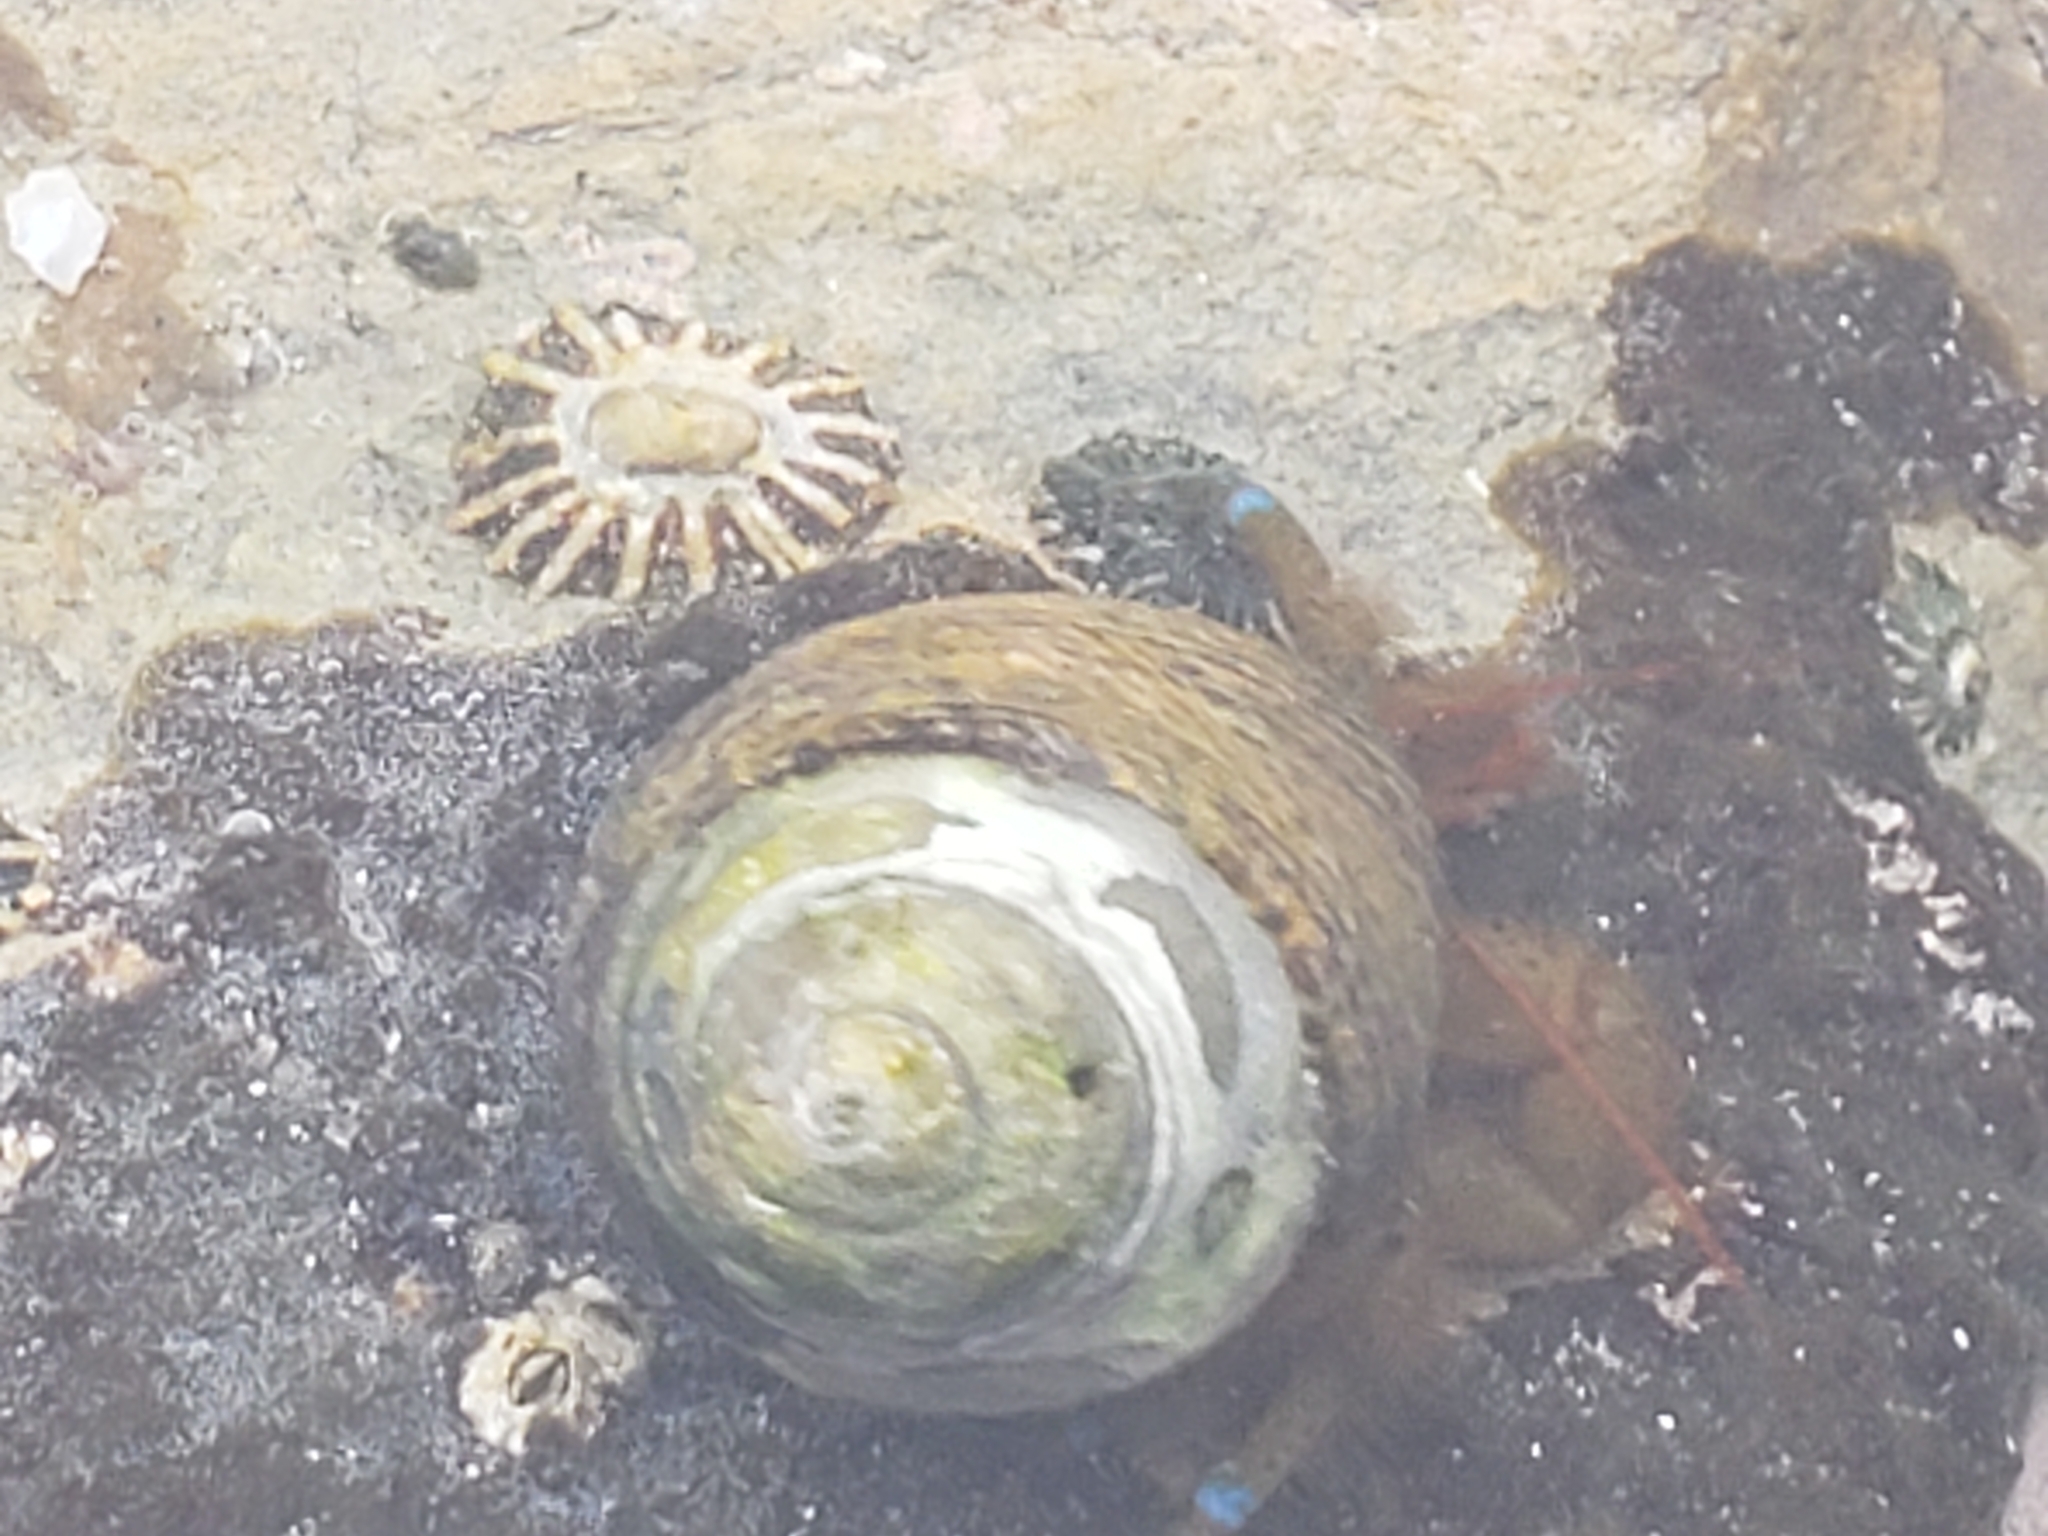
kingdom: Animalia
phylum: Arthropoda
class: Malacostraca
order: Decapoda
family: Paguridae
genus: Pagurus
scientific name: Pagurus samuelis
